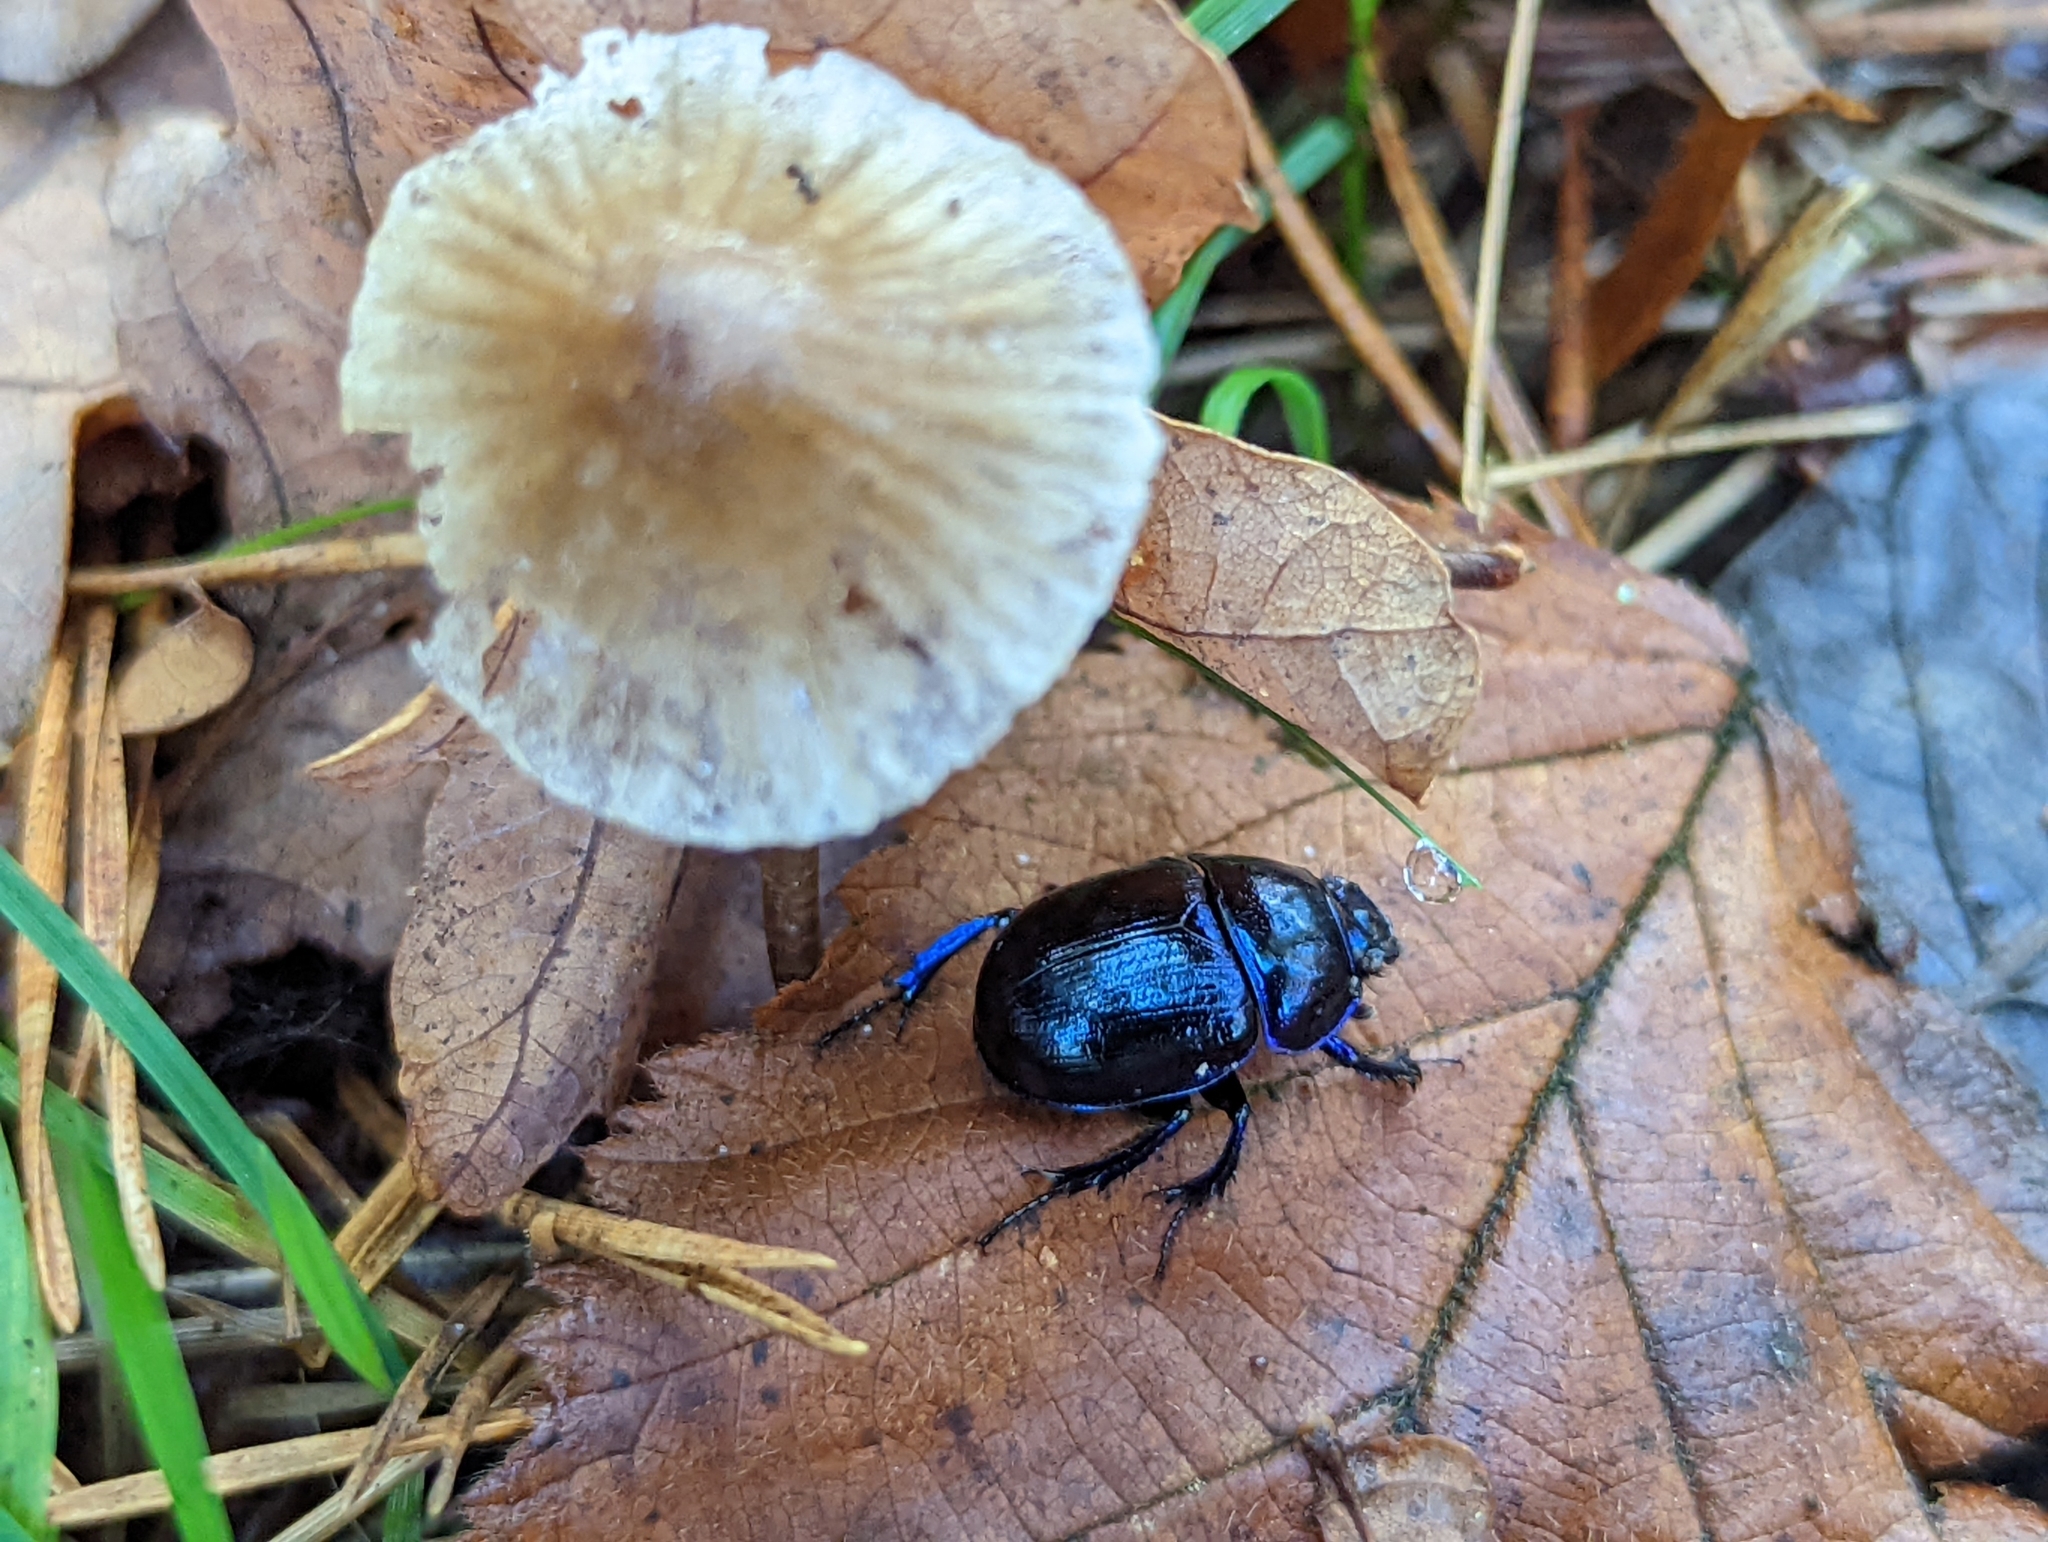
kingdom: Animalia
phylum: Arthropoda
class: Insecta
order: Coleoptera
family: Geotrupidae
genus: Anoplotrupes
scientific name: Anoplotrupes stercorosus
